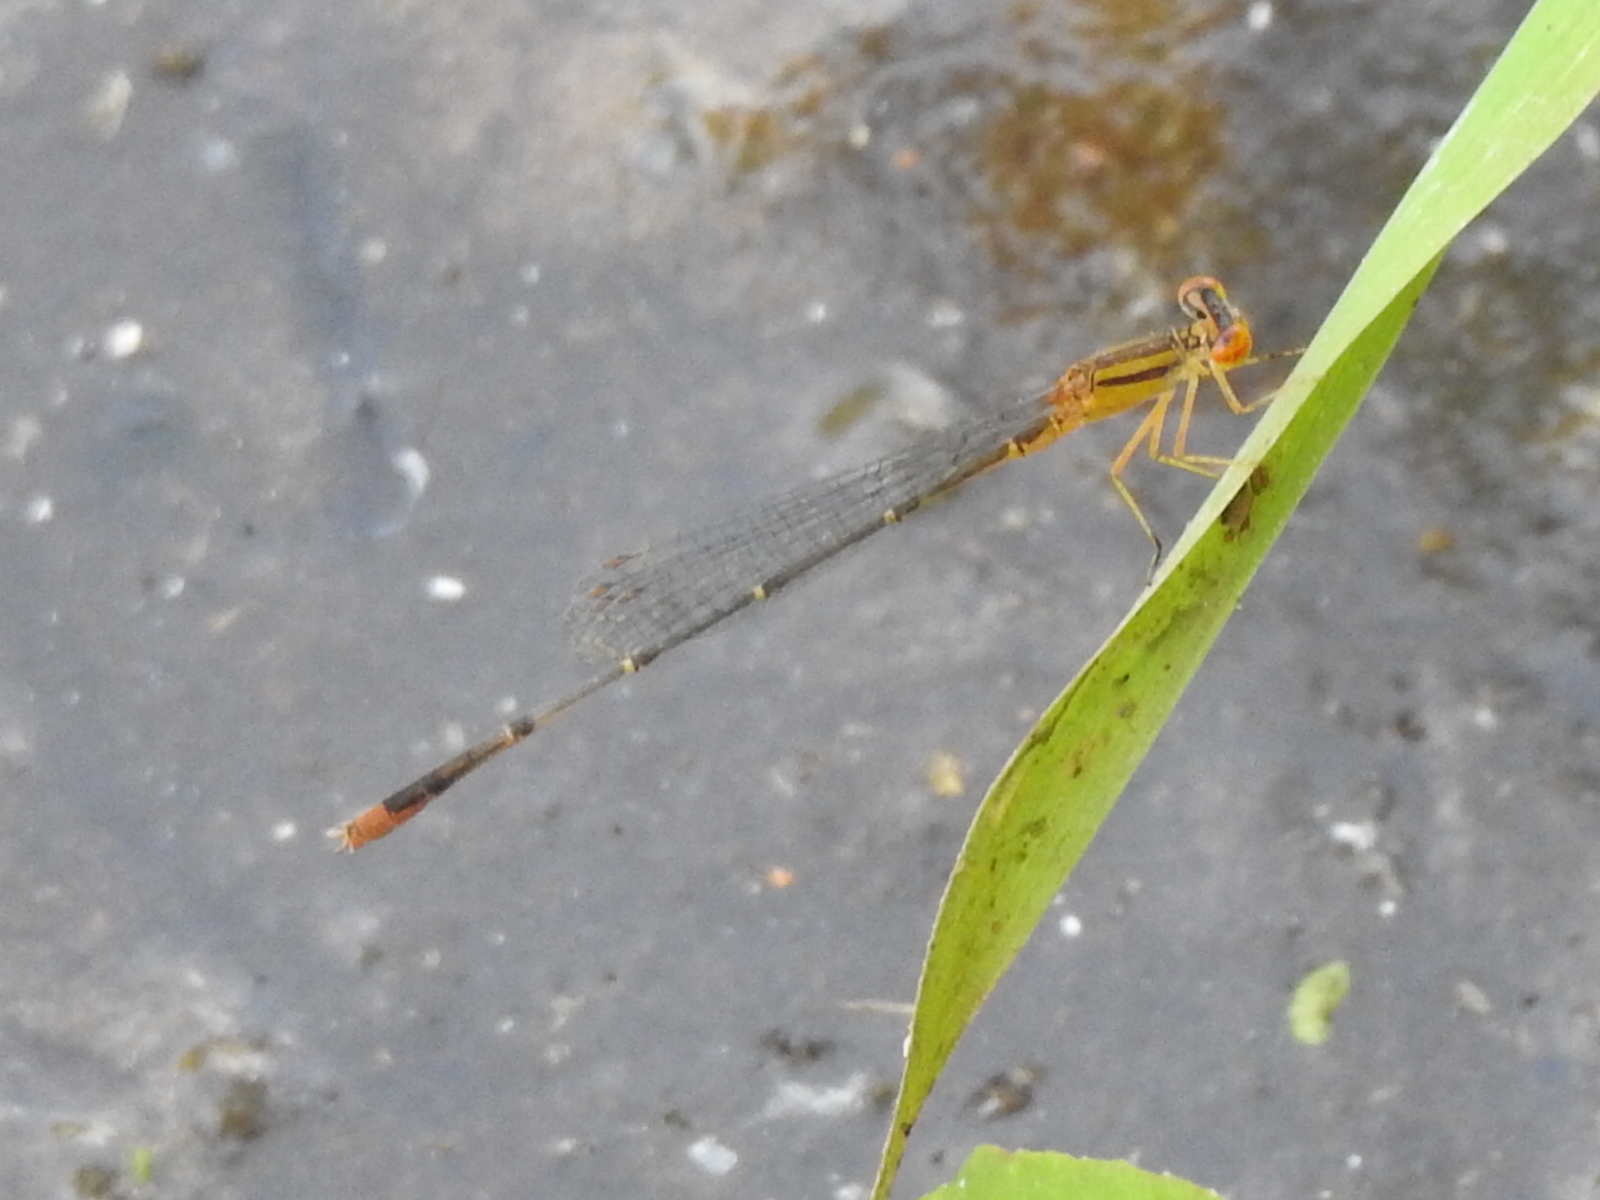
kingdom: Animalia
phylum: Arthropoda
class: Insecta
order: Odonata
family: Coenagrionidae
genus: Enallagma
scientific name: Enallagma signatum
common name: Orange bluet
